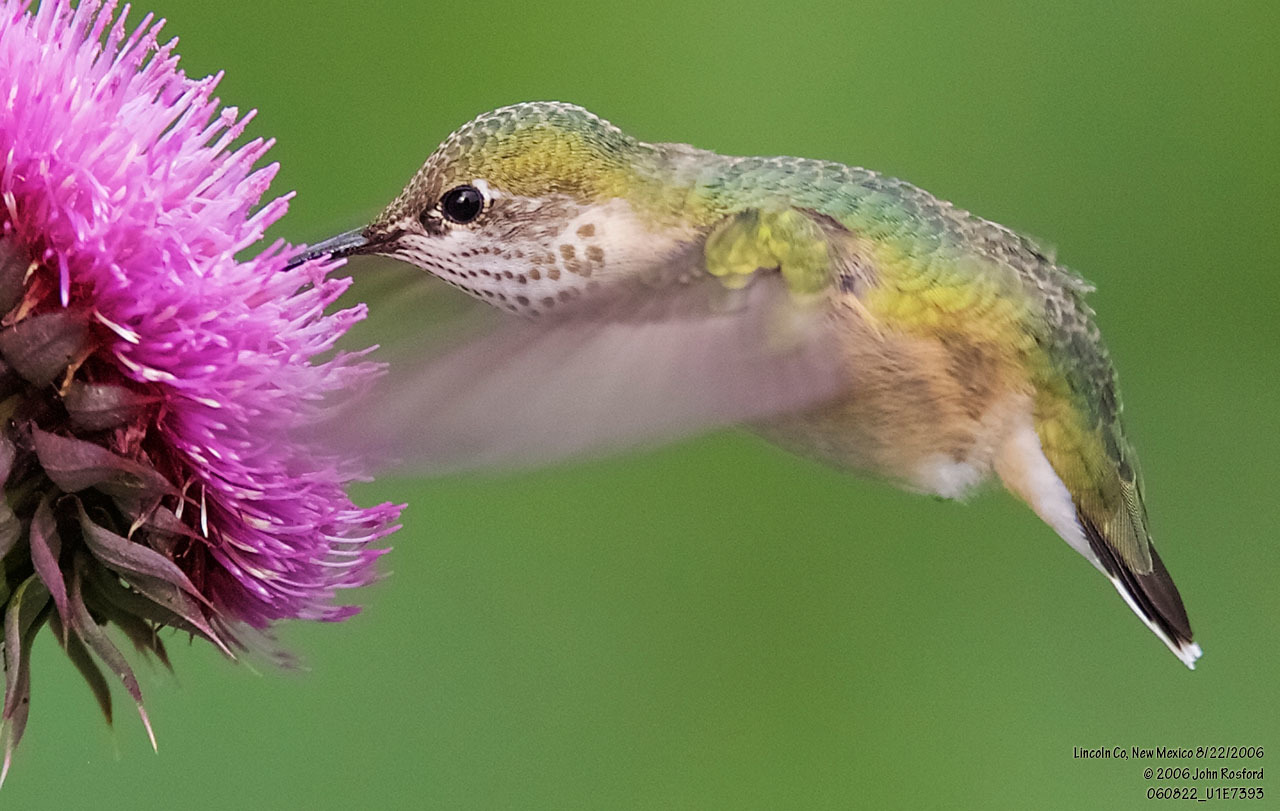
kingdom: Animalia
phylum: Chordata
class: Aves
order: Apodiformes
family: Trochilidae
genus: Selasphorus
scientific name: Selasphorus calliope
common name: Calliope hummingbird
